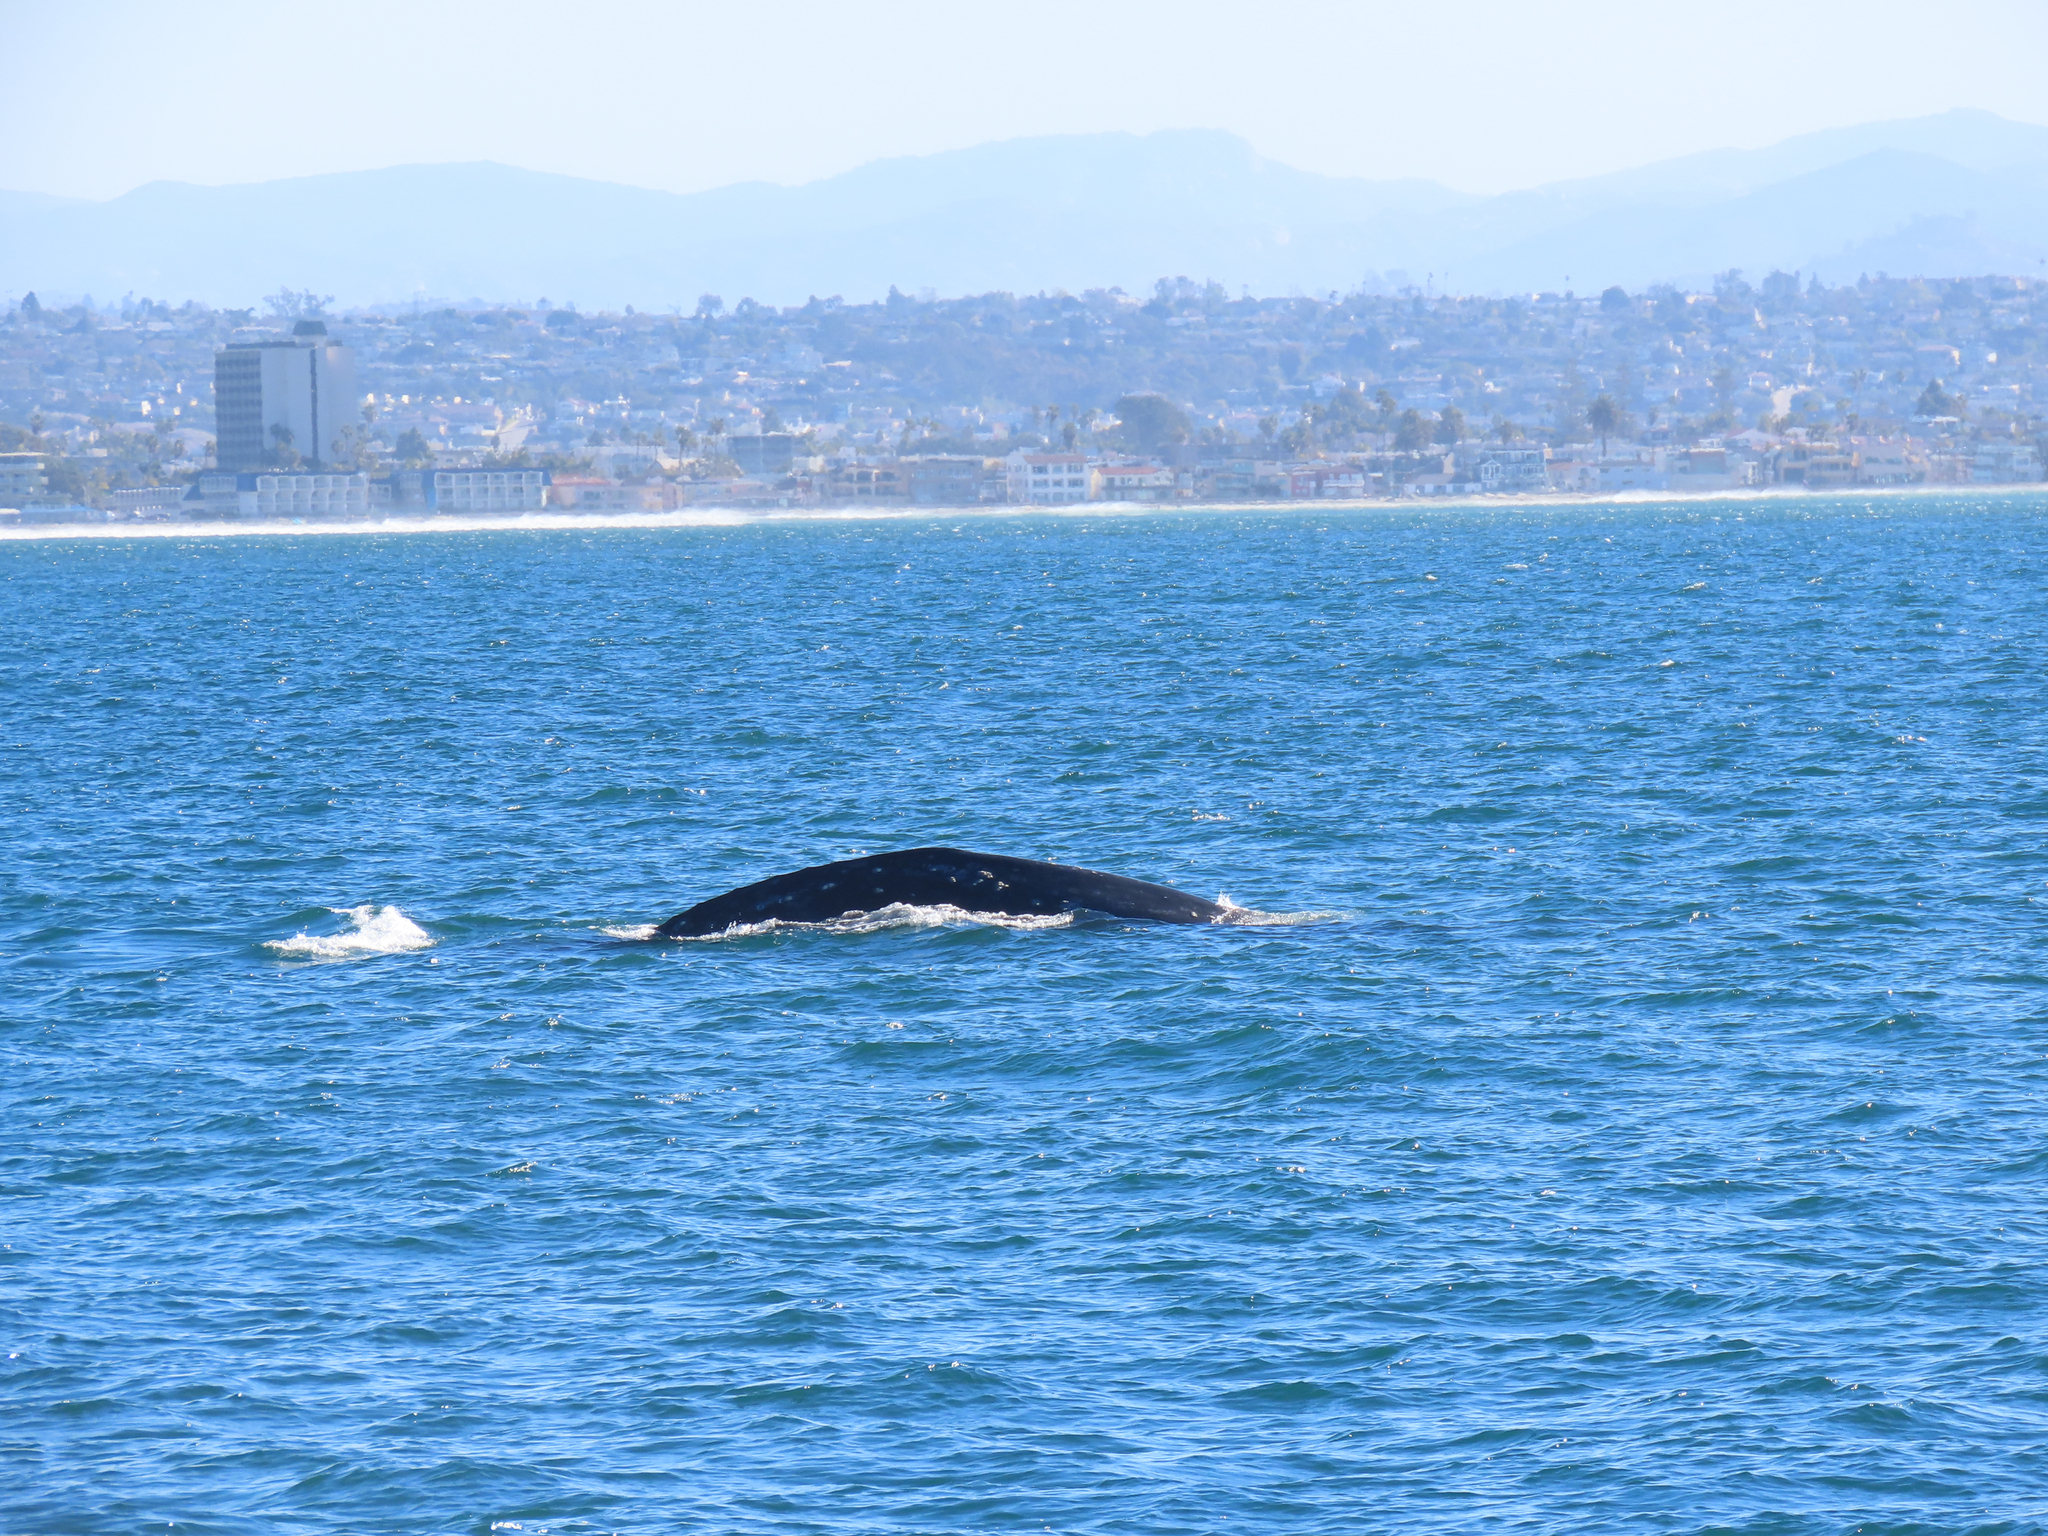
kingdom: Animalia
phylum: Chordata
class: Mammalia
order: Cetacea
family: Eschrichtiidae
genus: Eschrichtius
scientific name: Eschrichtius robustus
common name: Gray whale
